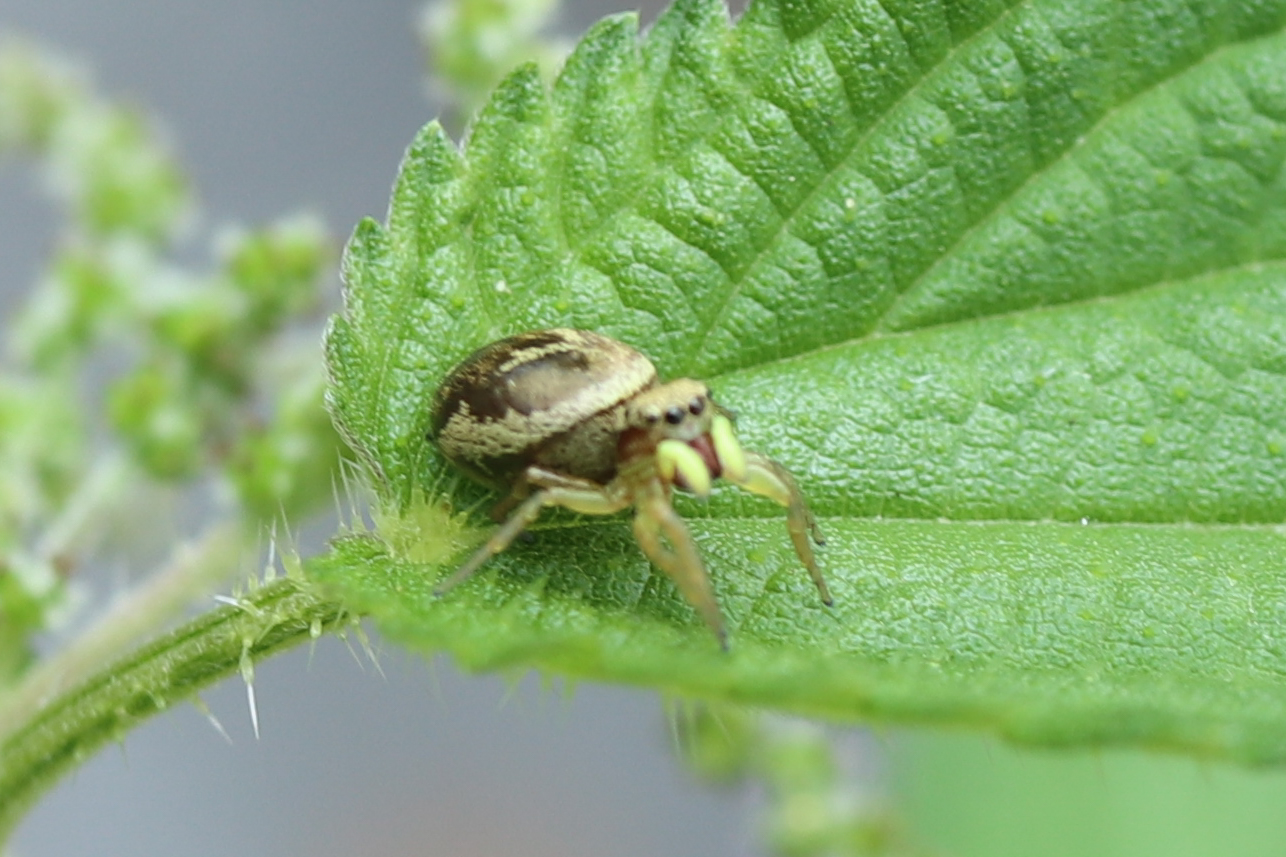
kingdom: Animalia
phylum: Arthropoda
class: Arachnida
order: Araneae
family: Salticidae
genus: Heliophanus
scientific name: Heliophanus tribulosus
